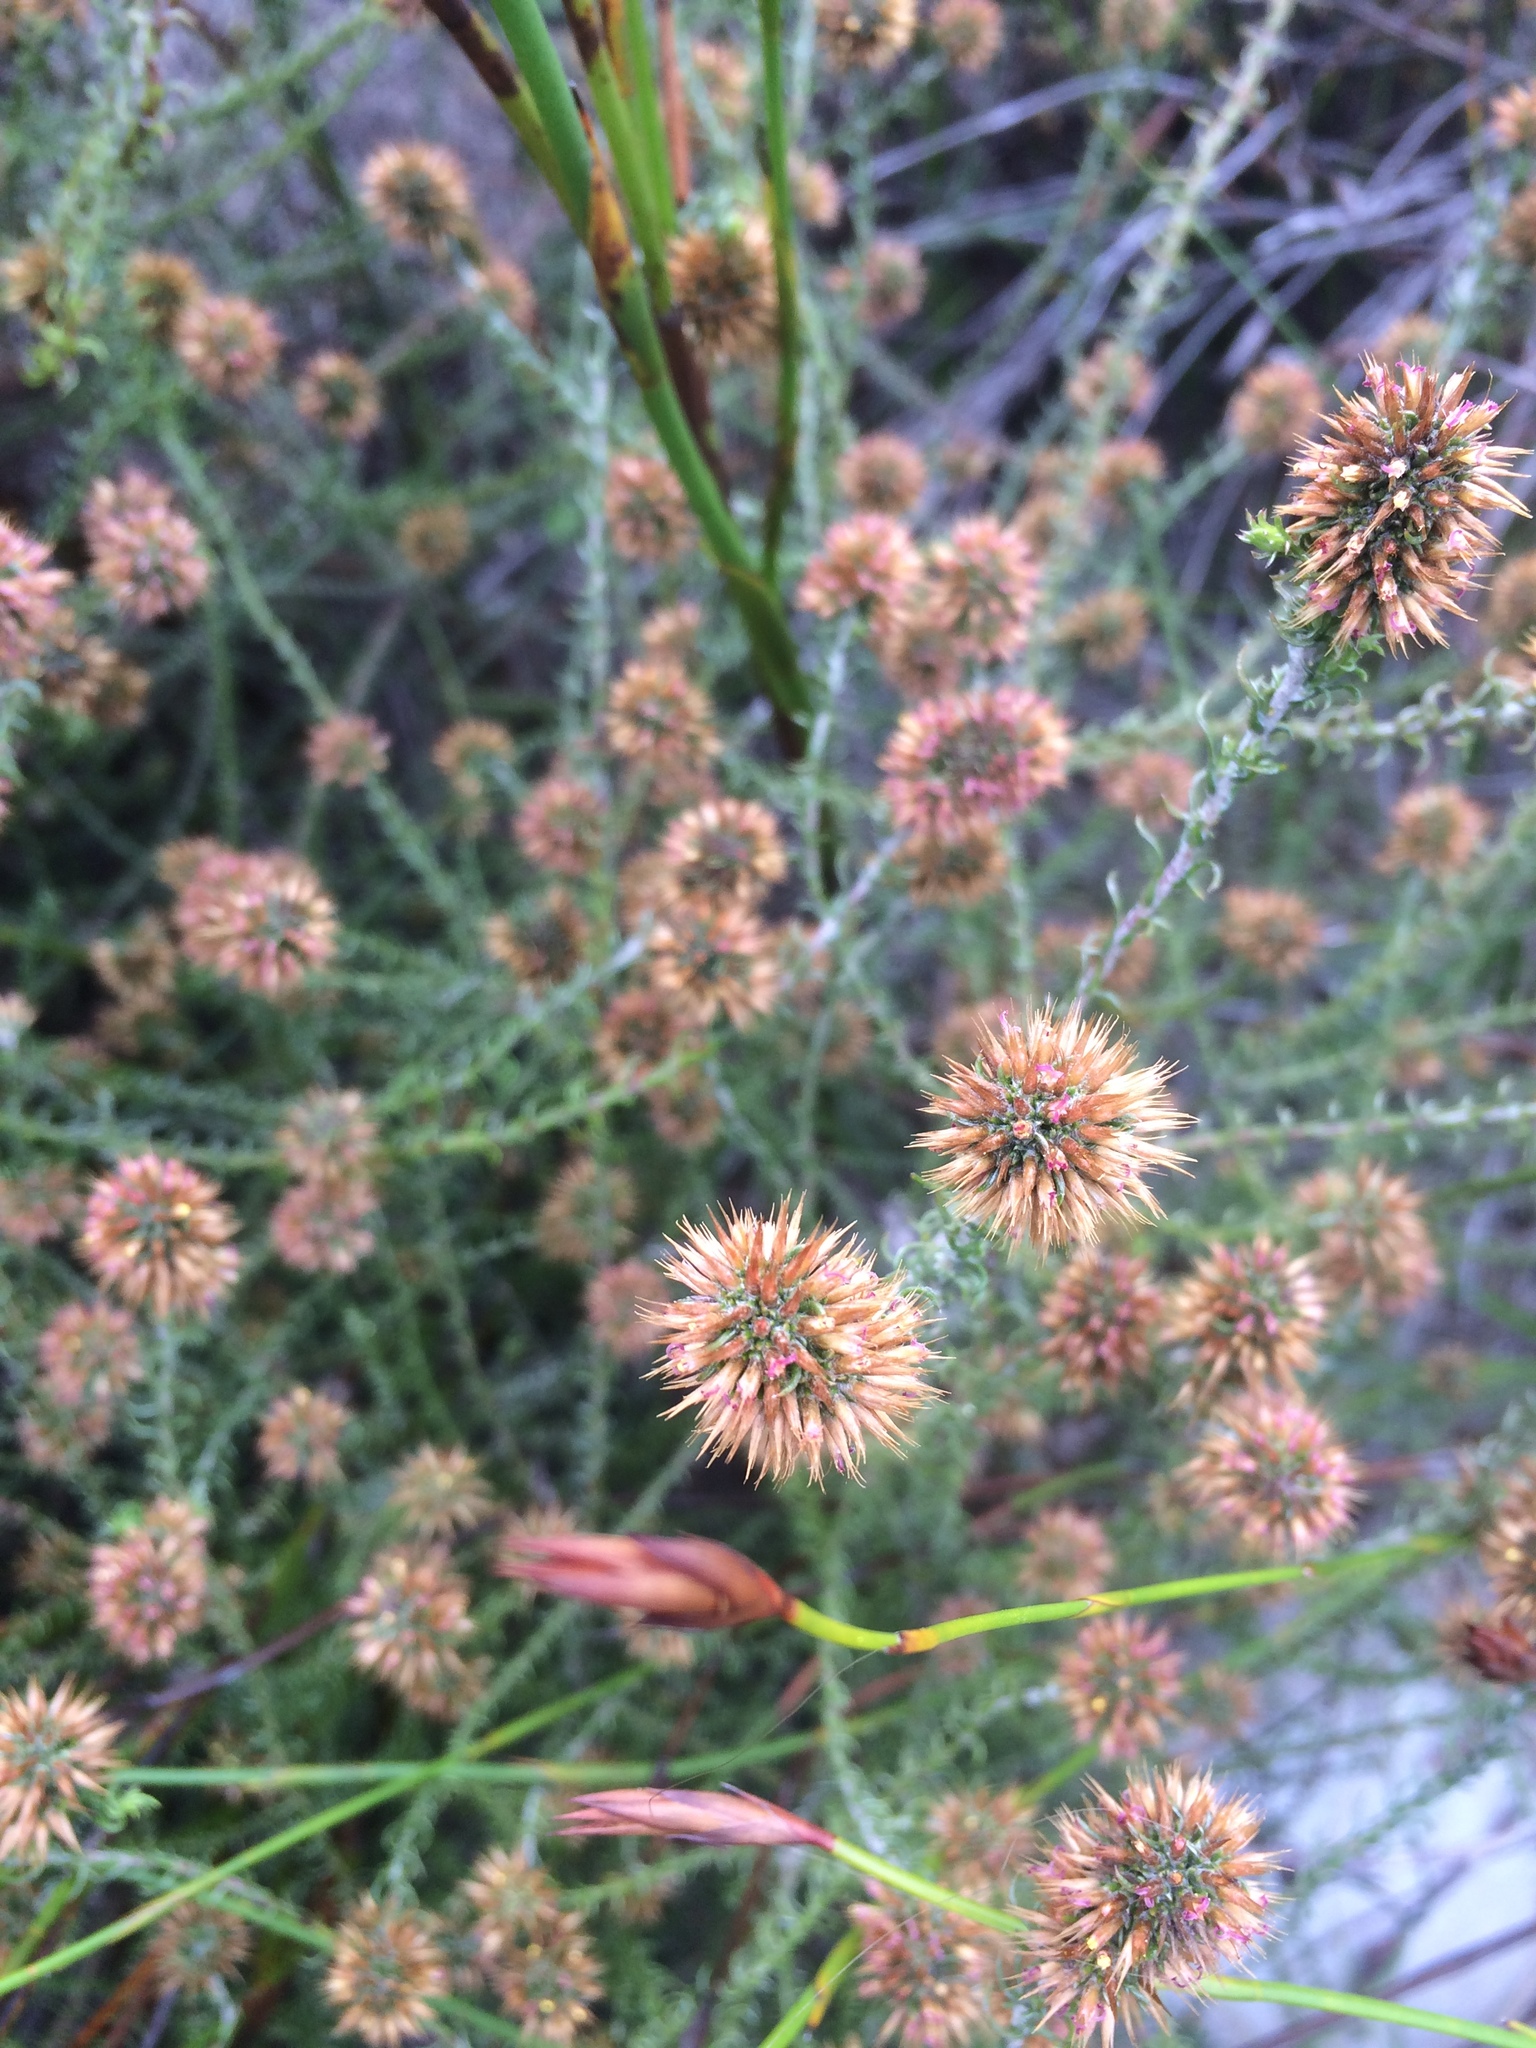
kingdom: Plantae
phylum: Tracheophyta
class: Magnoliopsida
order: Asterales
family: Asteraceae
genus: Seriphium
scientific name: Seriphium spirale
